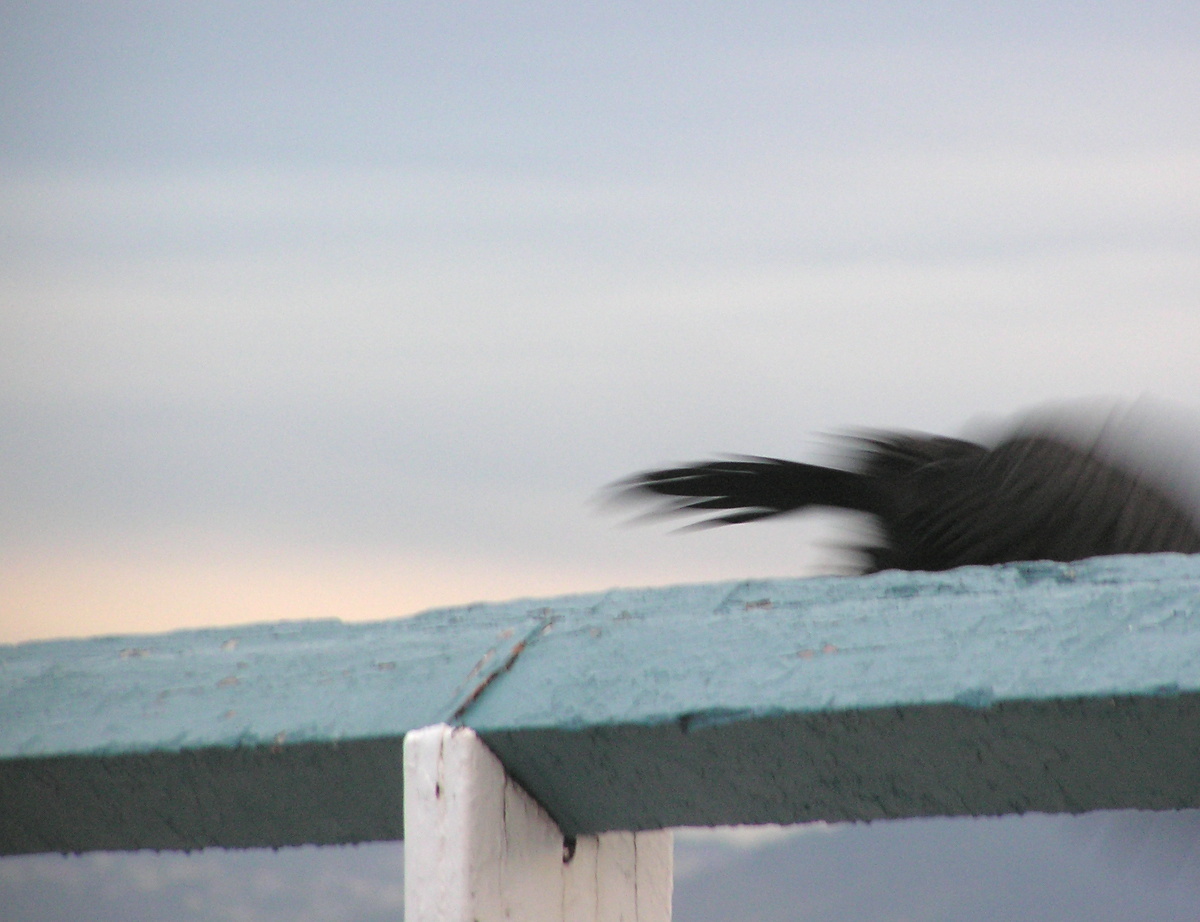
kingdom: Animalia
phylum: Chordata
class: Aves
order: Suliformes
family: Phalacrocoracidae
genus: Microcarbo
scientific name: Microcarbo melanoleucos
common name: Little pied cormorant
